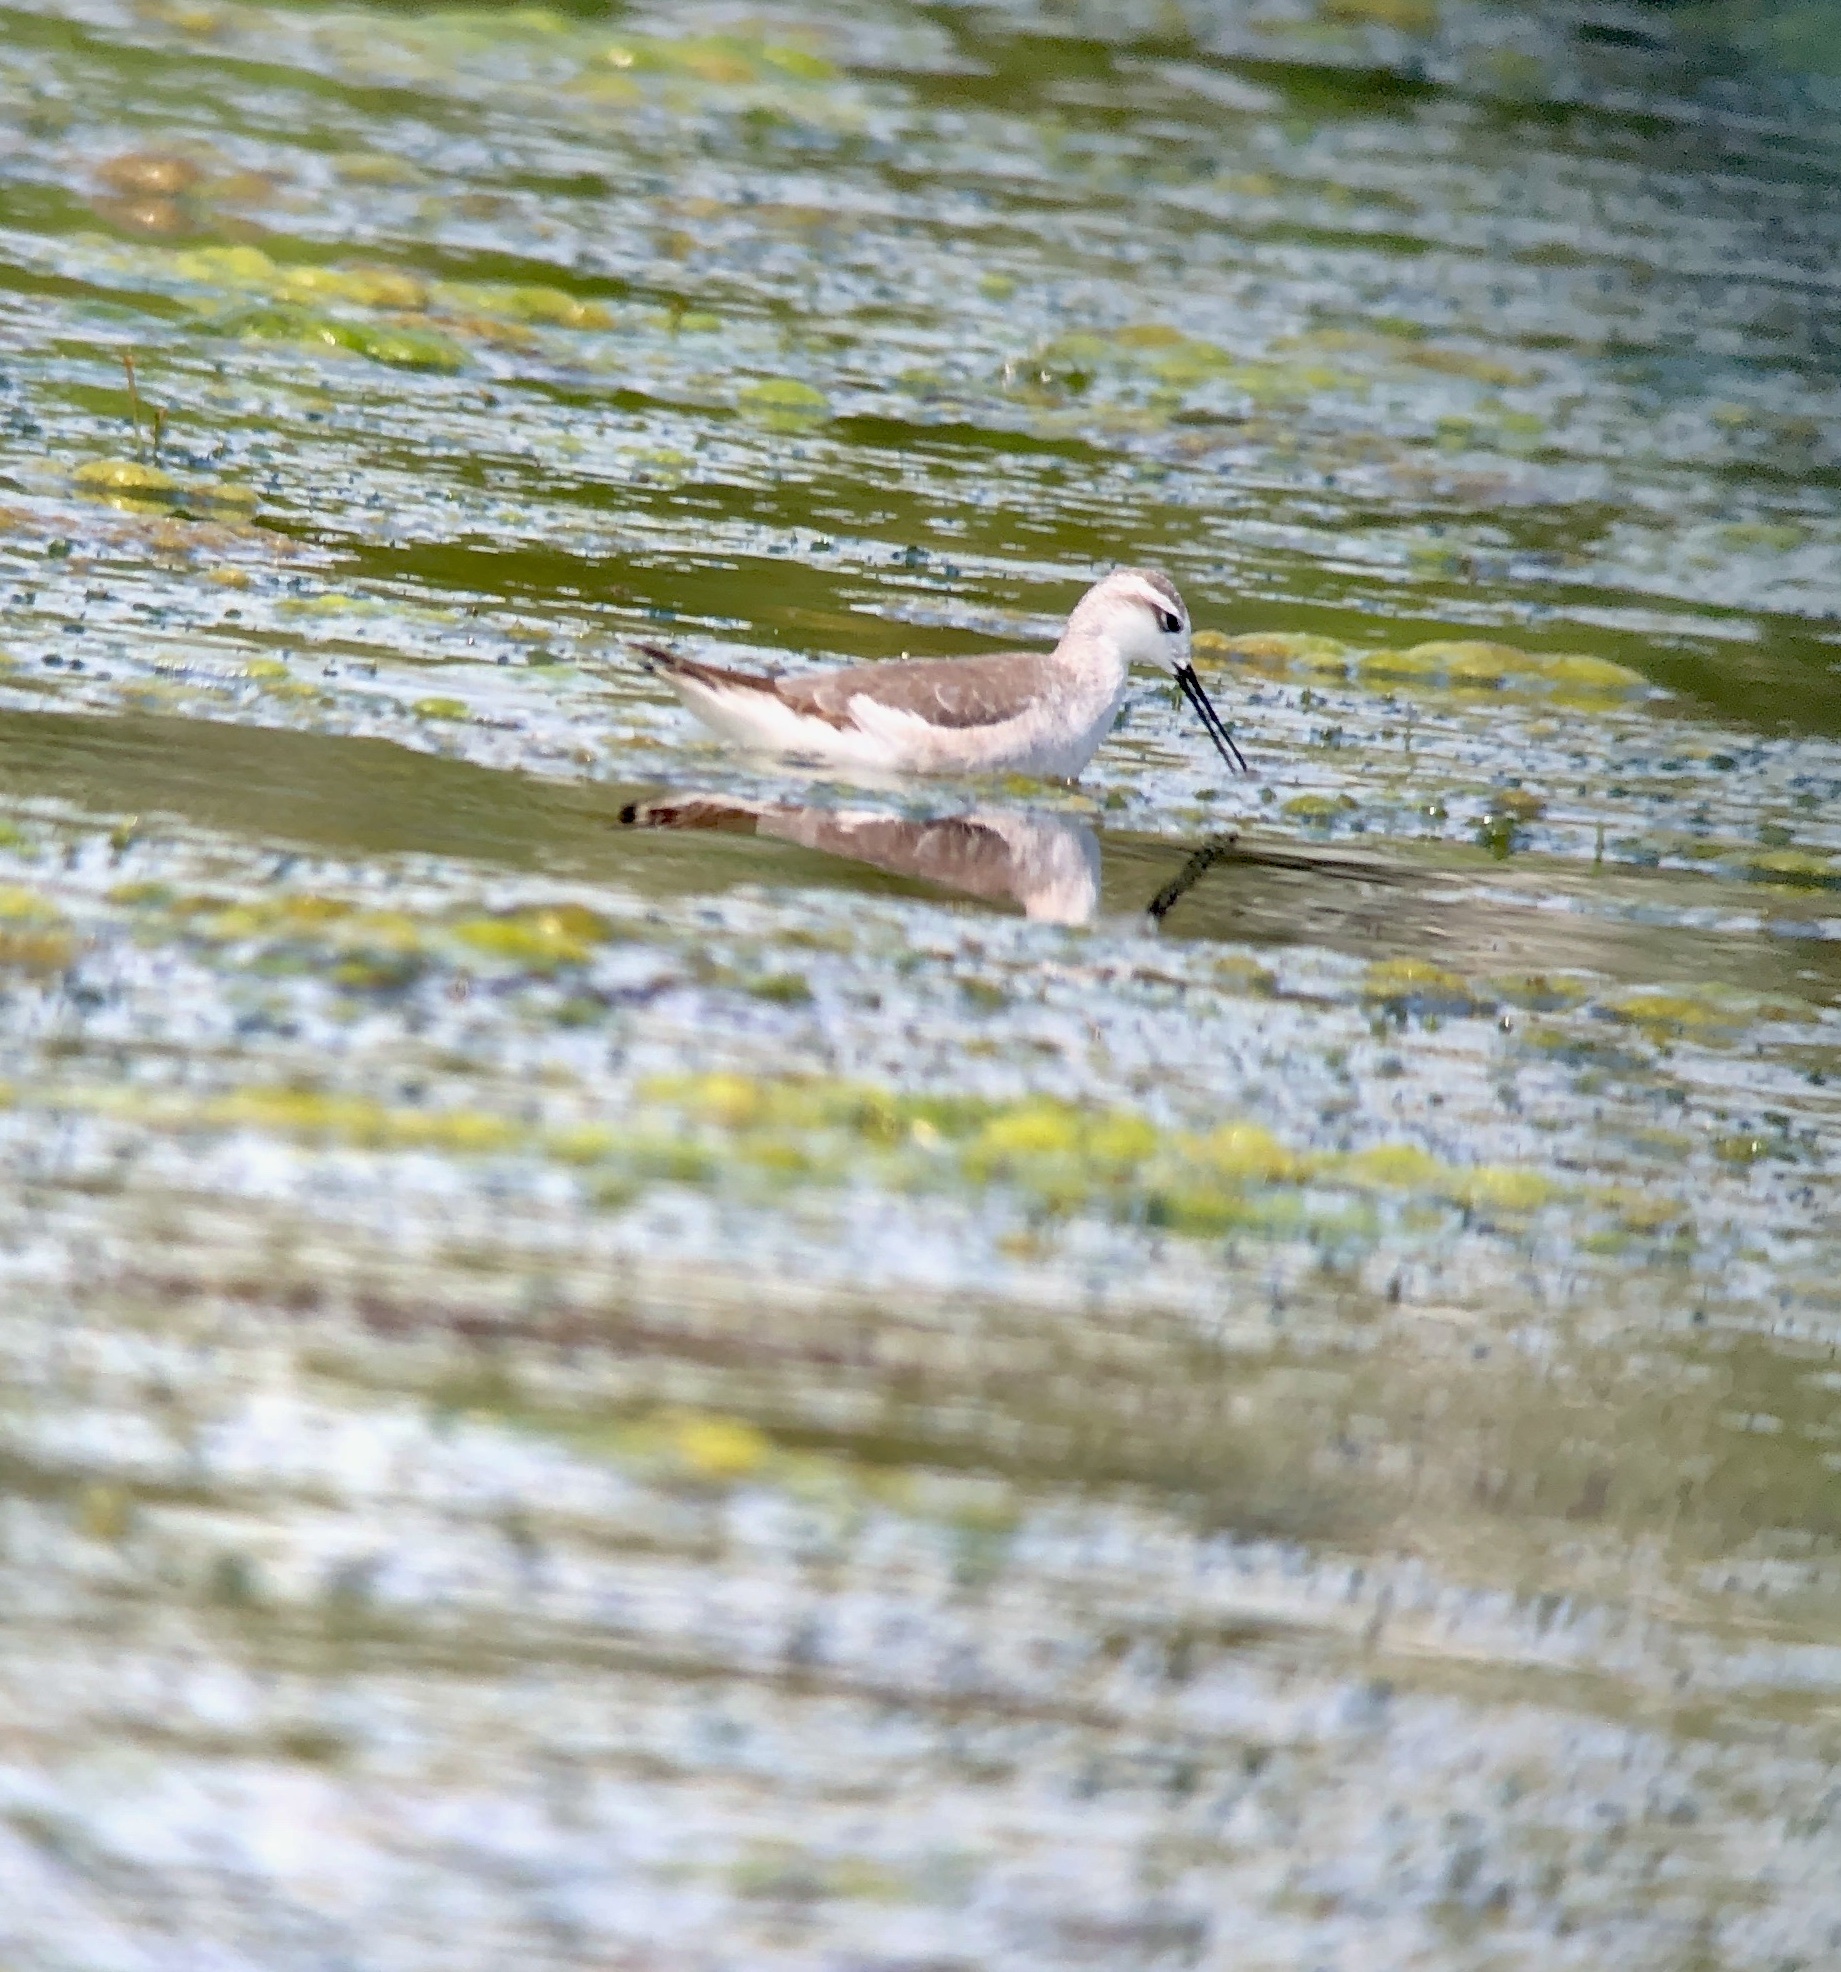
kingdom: Animalia
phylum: Chordata
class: Aves
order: Charadriiformes
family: Scolopacidae
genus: Phalaropus
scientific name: Phalaropus tricolor
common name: Wilson's phalarope
